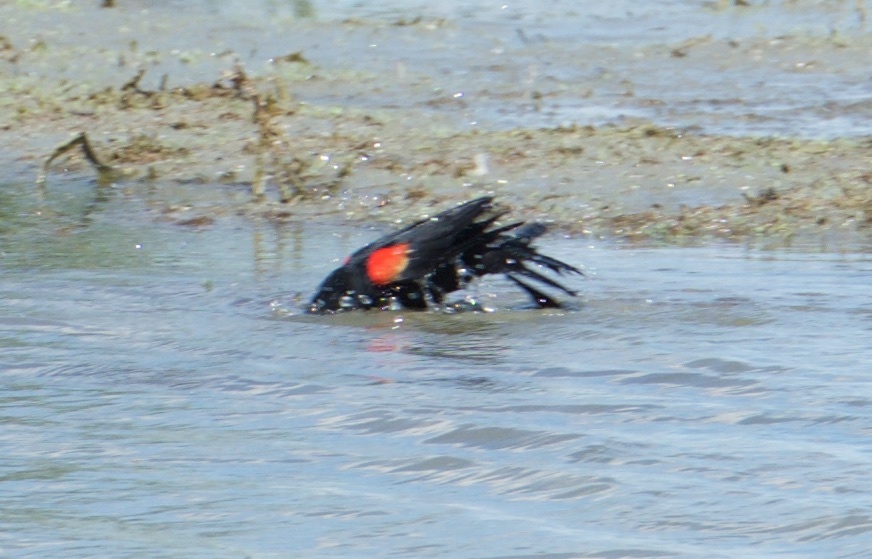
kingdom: Animalia
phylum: Chordata
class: Aves
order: Passeriformes
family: Icteridae
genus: Agelaius
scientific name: Agelaius phoeniceus
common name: Red-winged blackbird
